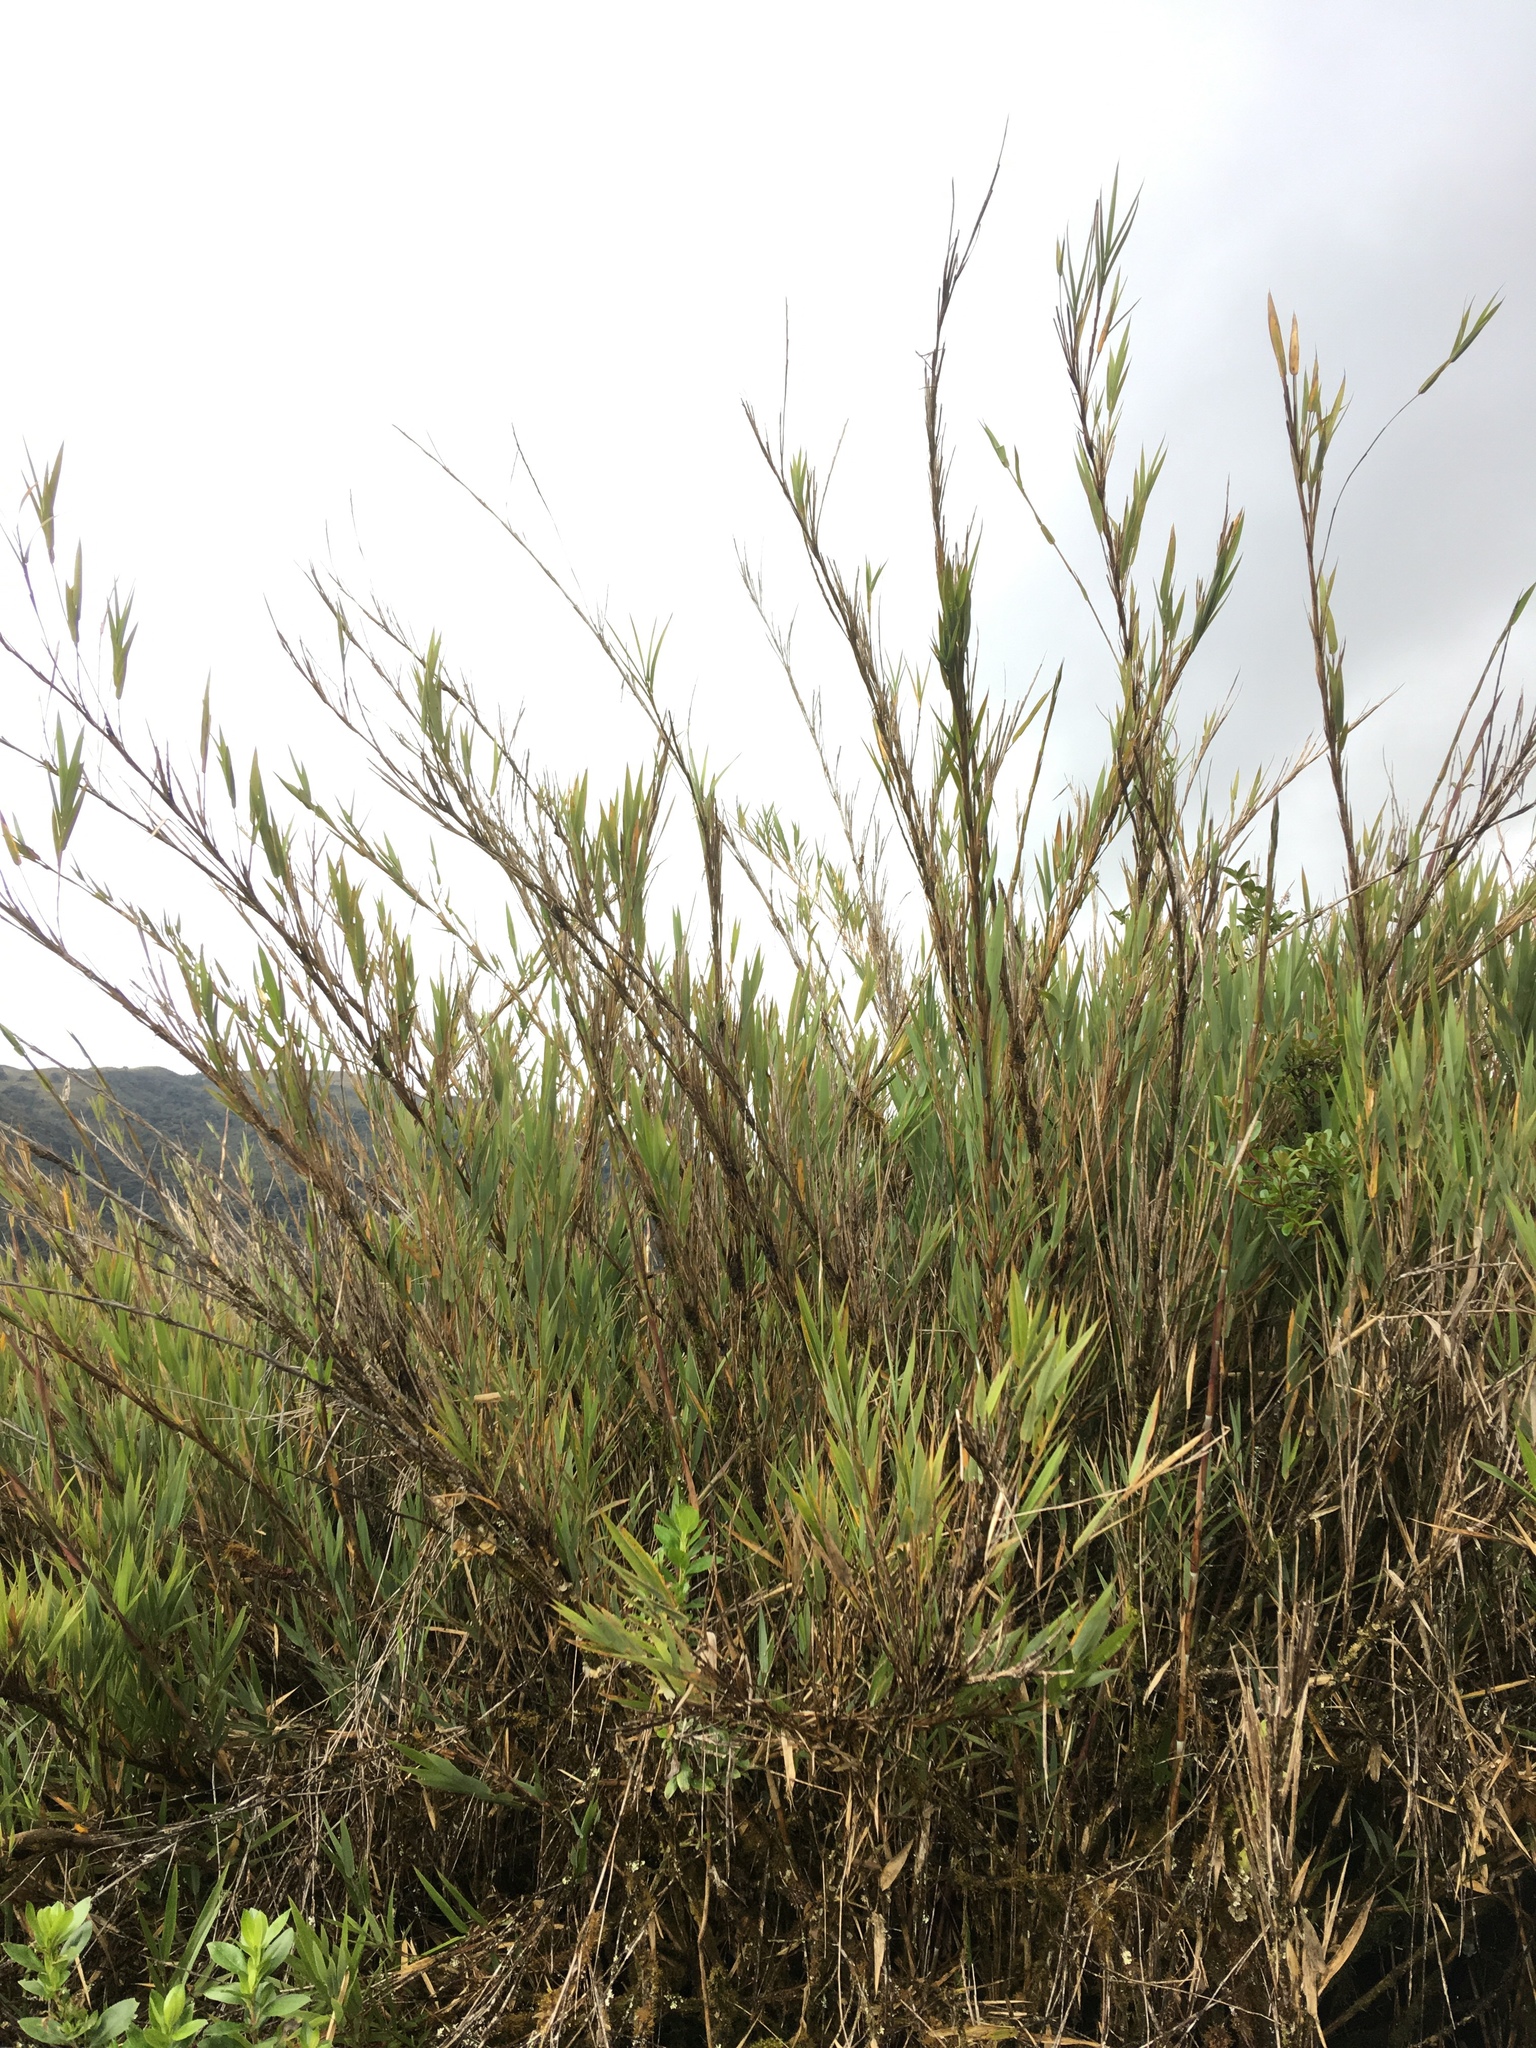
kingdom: Plantae
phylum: Tracheophyta
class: Liliopsida
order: Poales
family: Poaceae
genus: Chusquea
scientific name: Chusquea tessellata
